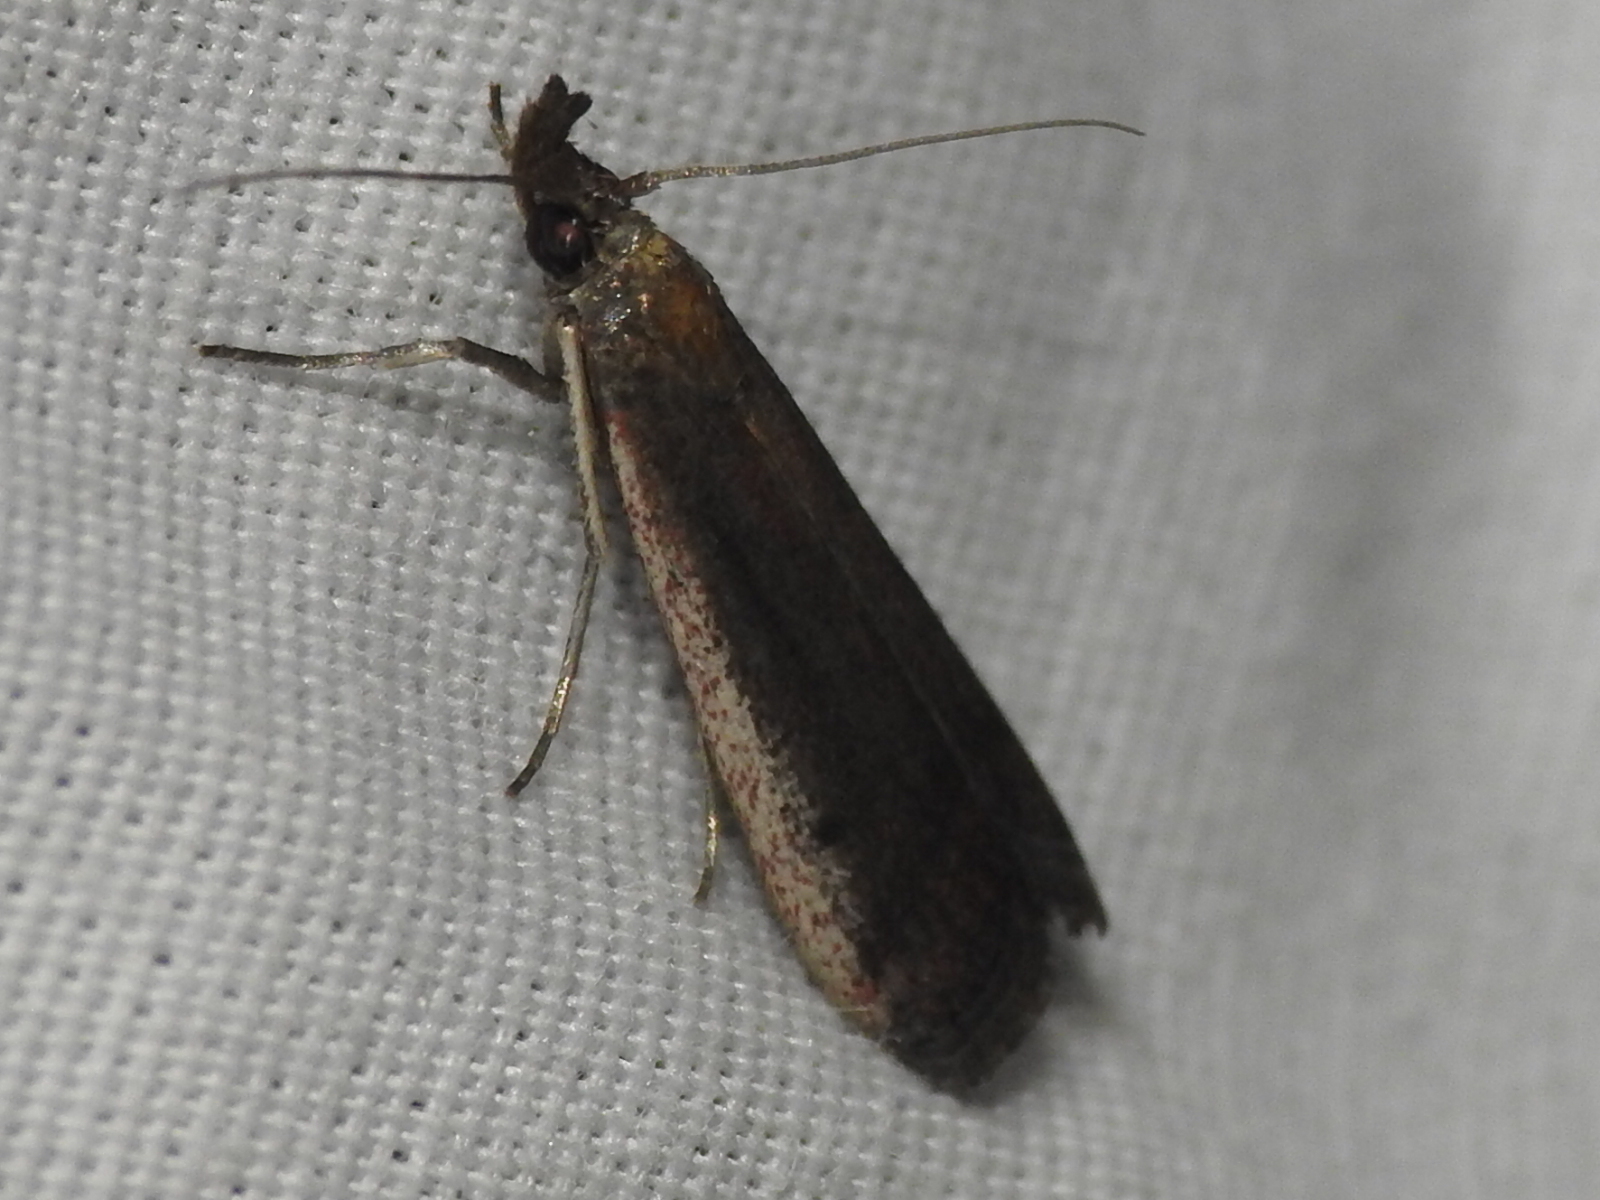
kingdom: Animalia
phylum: Arthropoda
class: Insecta
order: Lepidoptera
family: Pyralidae
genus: Atascosa
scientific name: Atascosa glareosella
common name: Rosy atascosa moth
